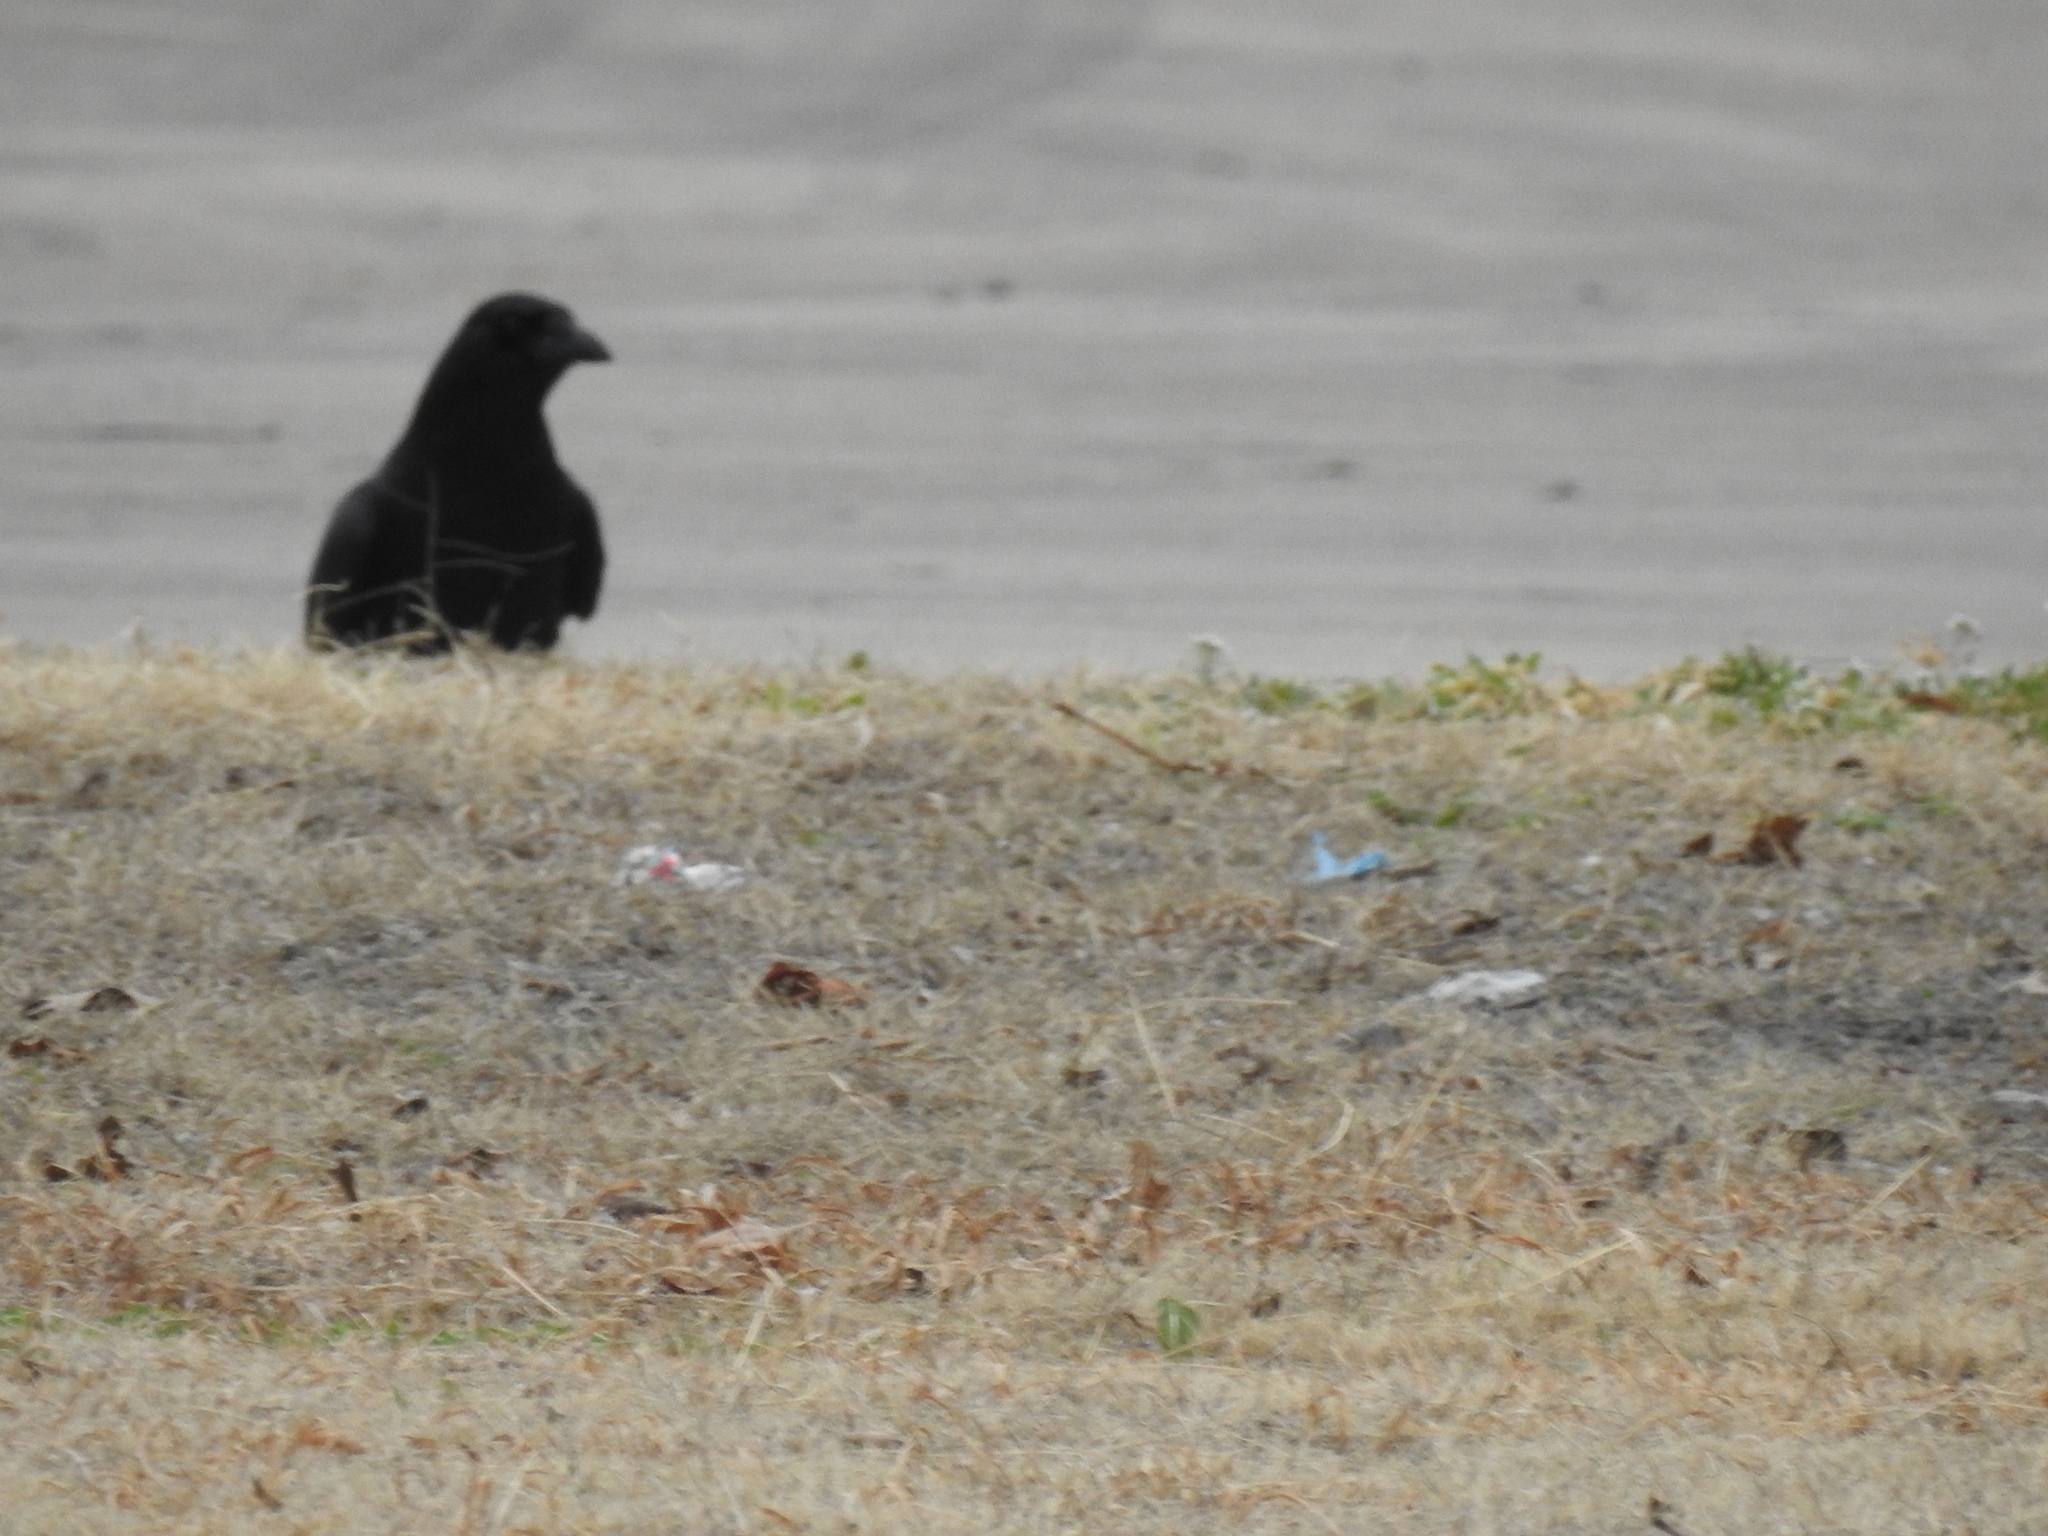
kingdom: Animalia
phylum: Chordata
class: Aves
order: Passeriformes
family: Corvidae
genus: Corvus
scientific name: Corvus brachyrhynchos
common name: American crow
